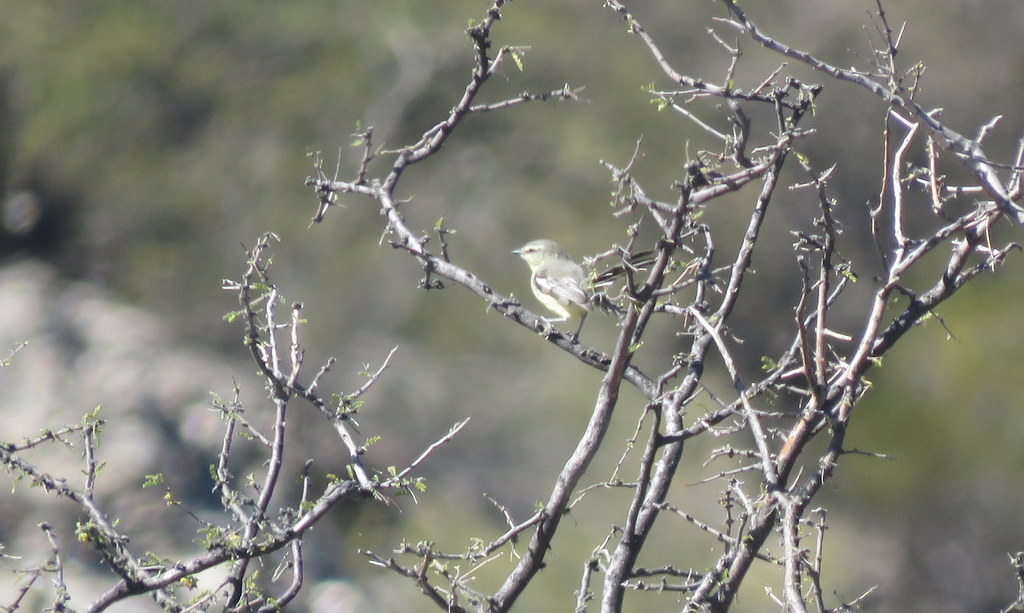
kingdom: Animalia
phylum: Chordata
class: Aves
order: Passeriformes
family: Tyrannidae
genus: Stigmatura
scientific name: Stigmatura budytoides
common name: Greater wagtail-tyrant
